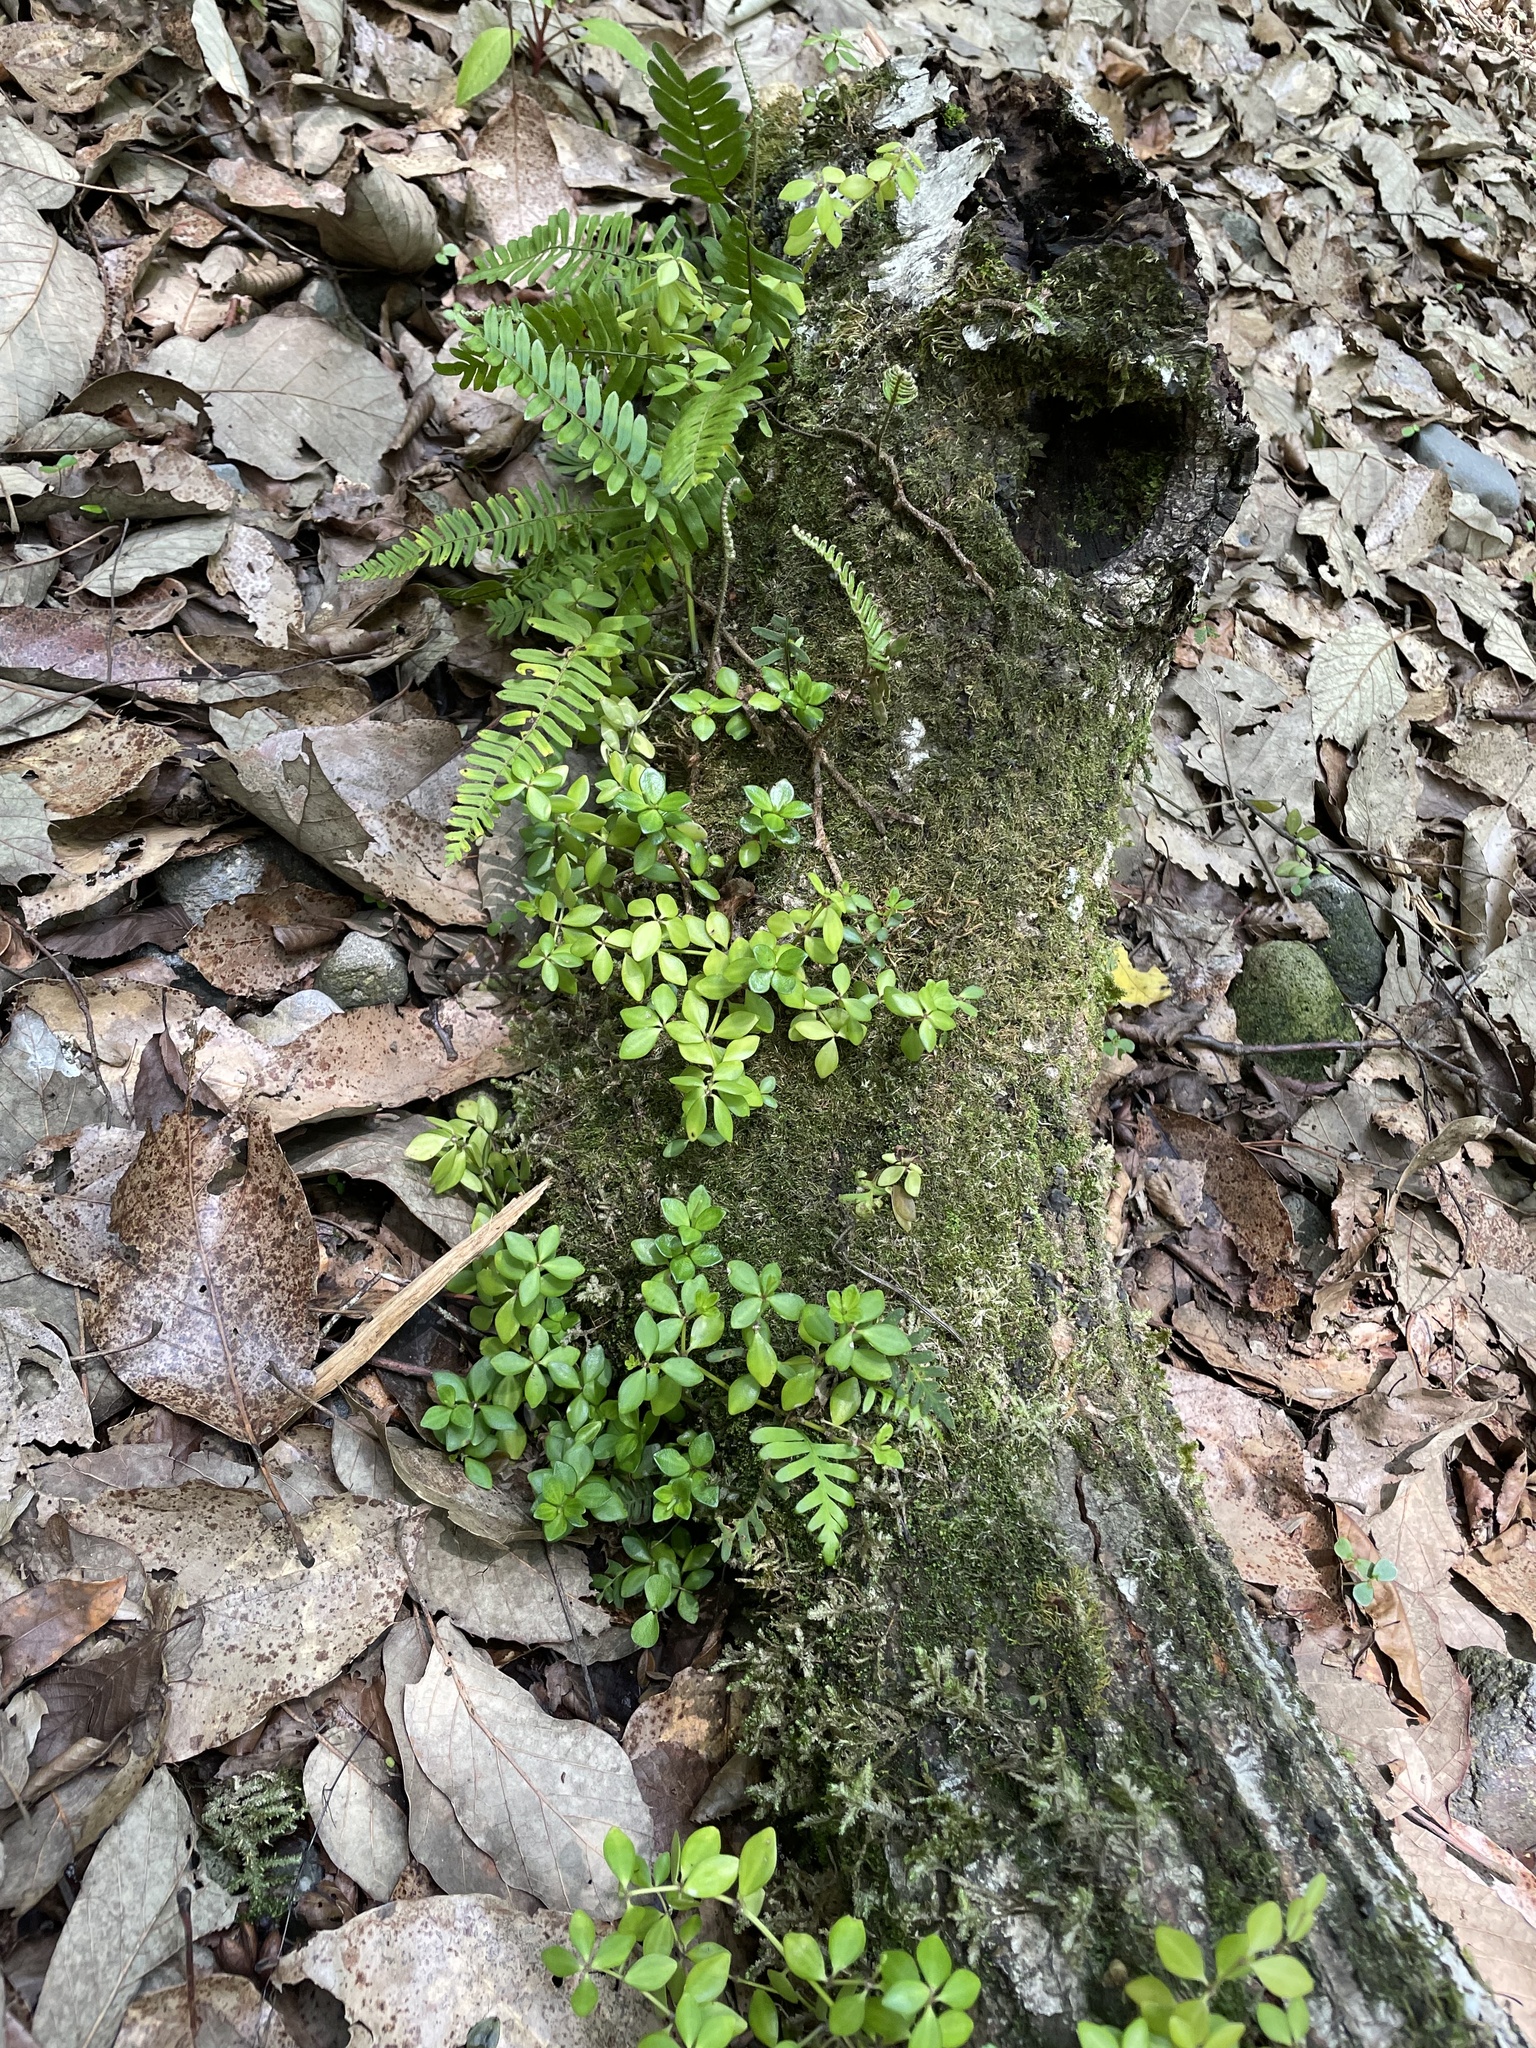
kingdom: Plantae
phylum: Tracheophyta
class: Magnoliopsida
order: Piperales
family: Piperaceae
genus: Peperomia
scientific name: Peperomia tetraphylla
